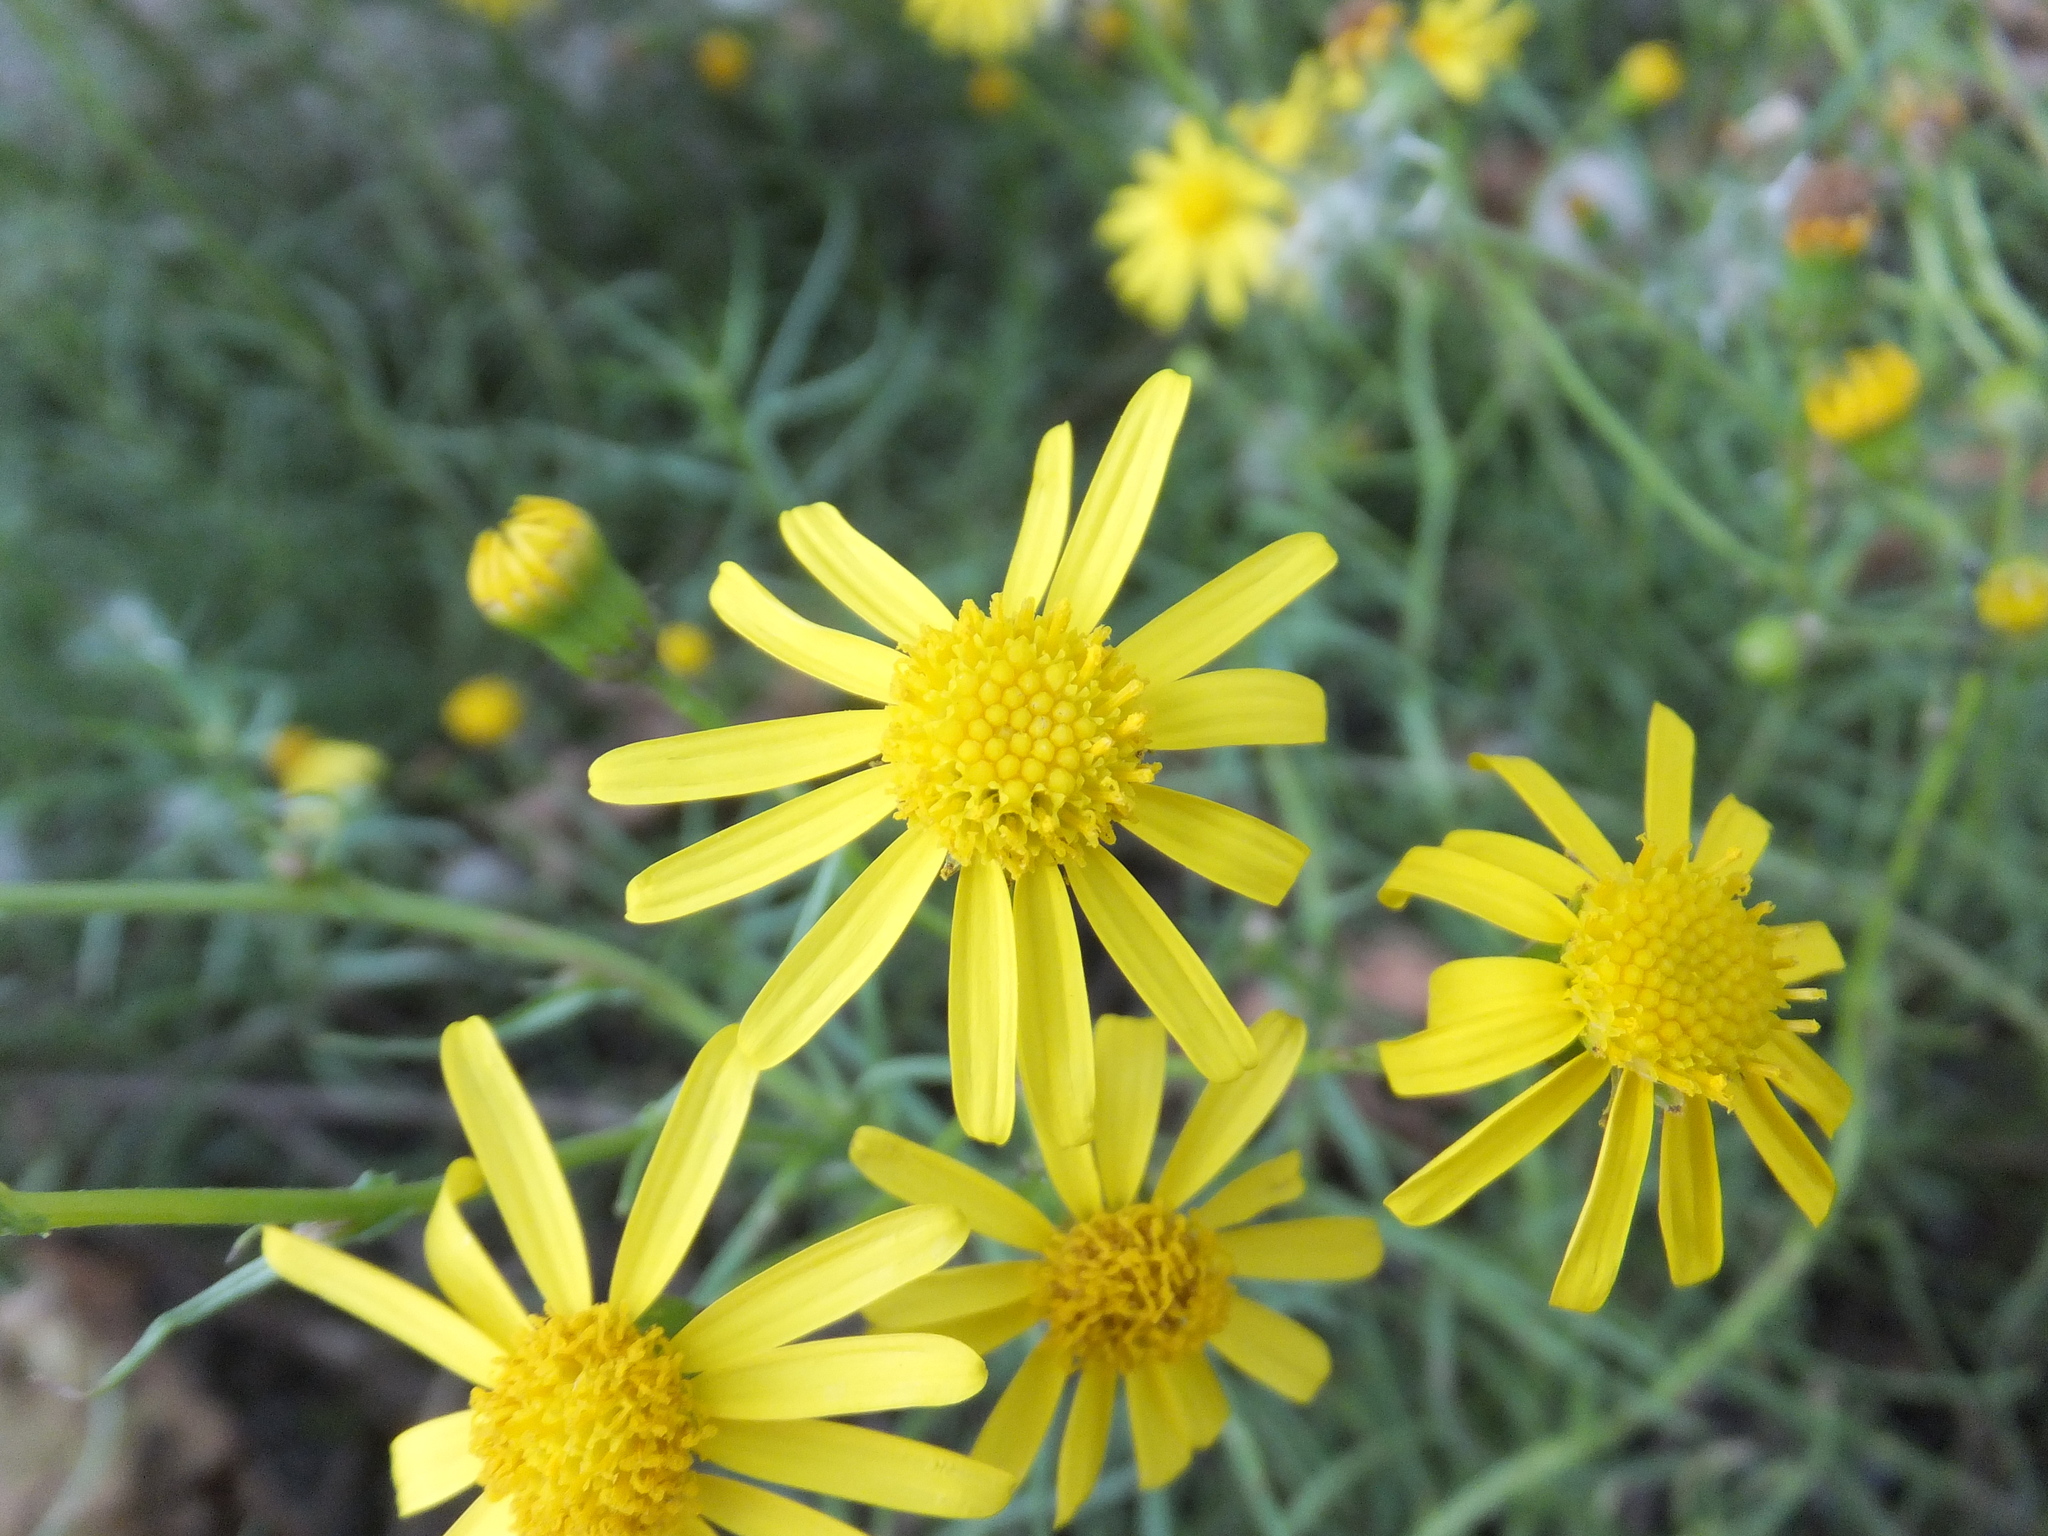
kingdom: Plantae
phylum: Tracheophyta
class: Magnoliopsida
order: Asterales
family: Asteraceae
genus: Senecio
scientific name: Senecio inaequidens
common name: Narrow-leaved ragwort
